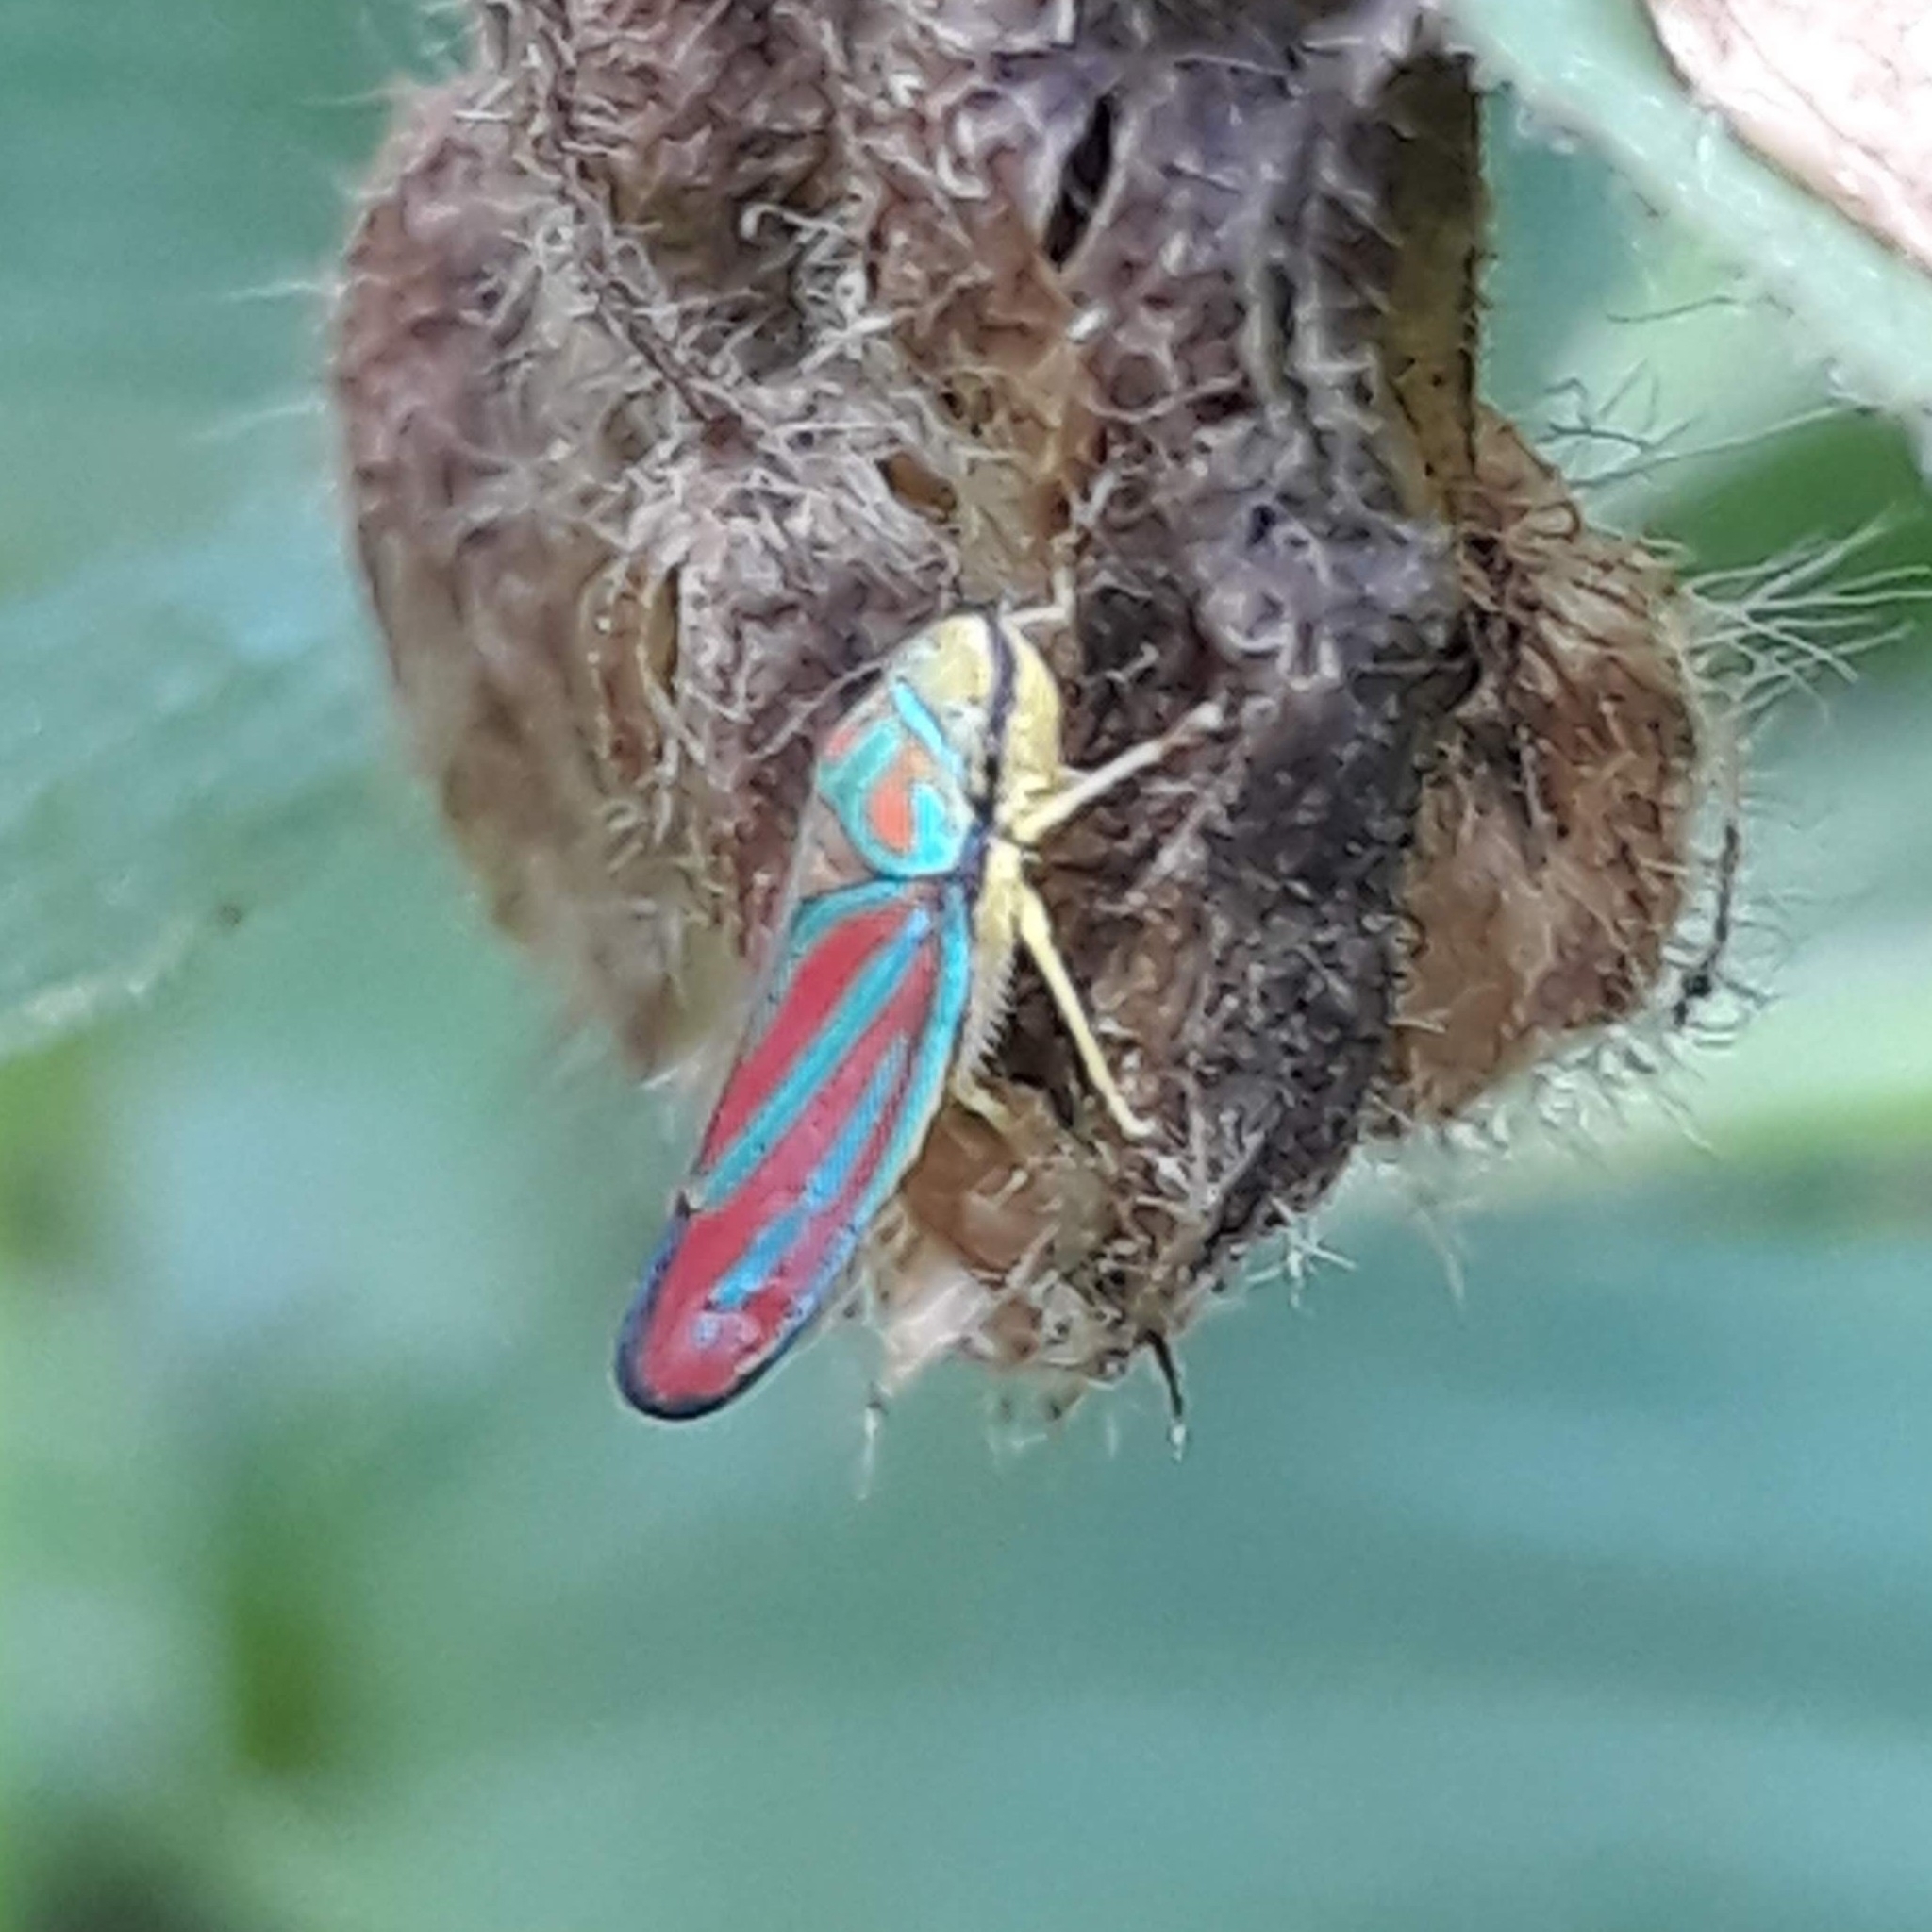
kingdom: Animalia
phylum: Arthropoda
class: Insecta
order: Hemiptera
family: Cicadellidae
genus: Graphocephala
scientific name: Graphocephala coccinea
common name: Candy-striped leafhopper
